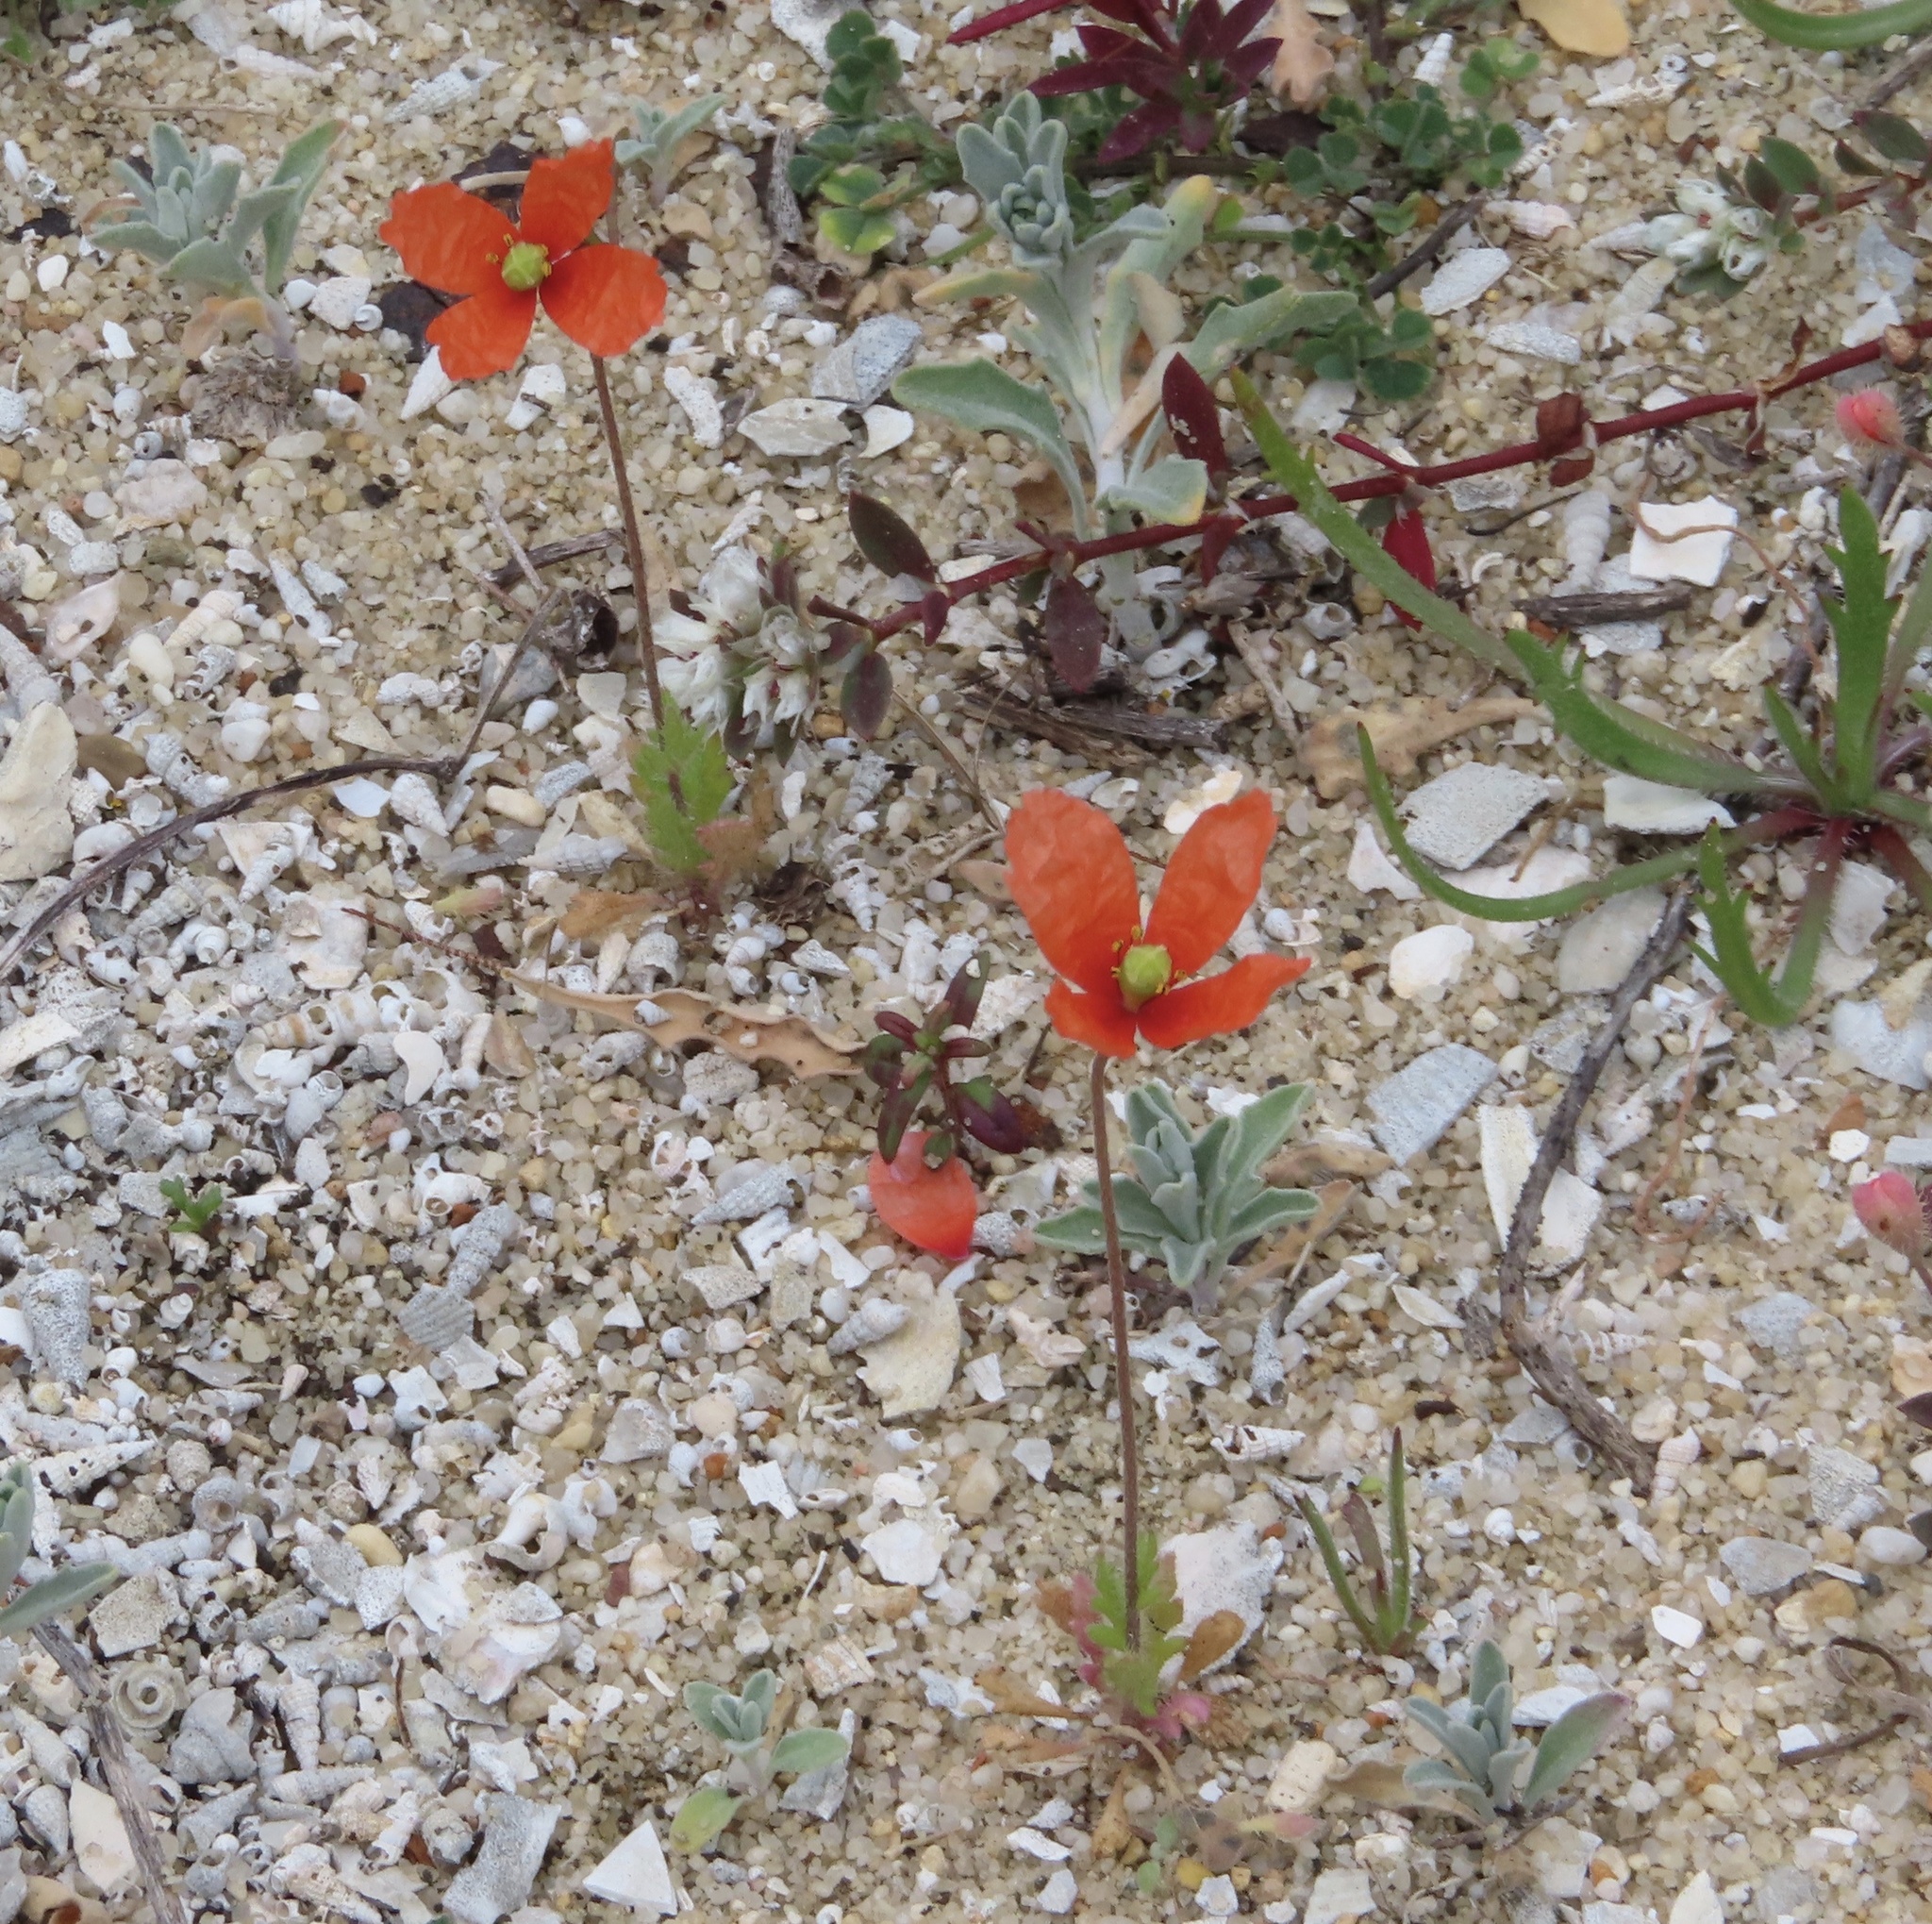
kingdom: Plantae
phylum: Tracheophyta
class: Magnoliopsida
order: Ranunculales
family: Papaveraceae
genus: Papaver
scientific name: Papaver dubium
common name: Long-headed poppy
